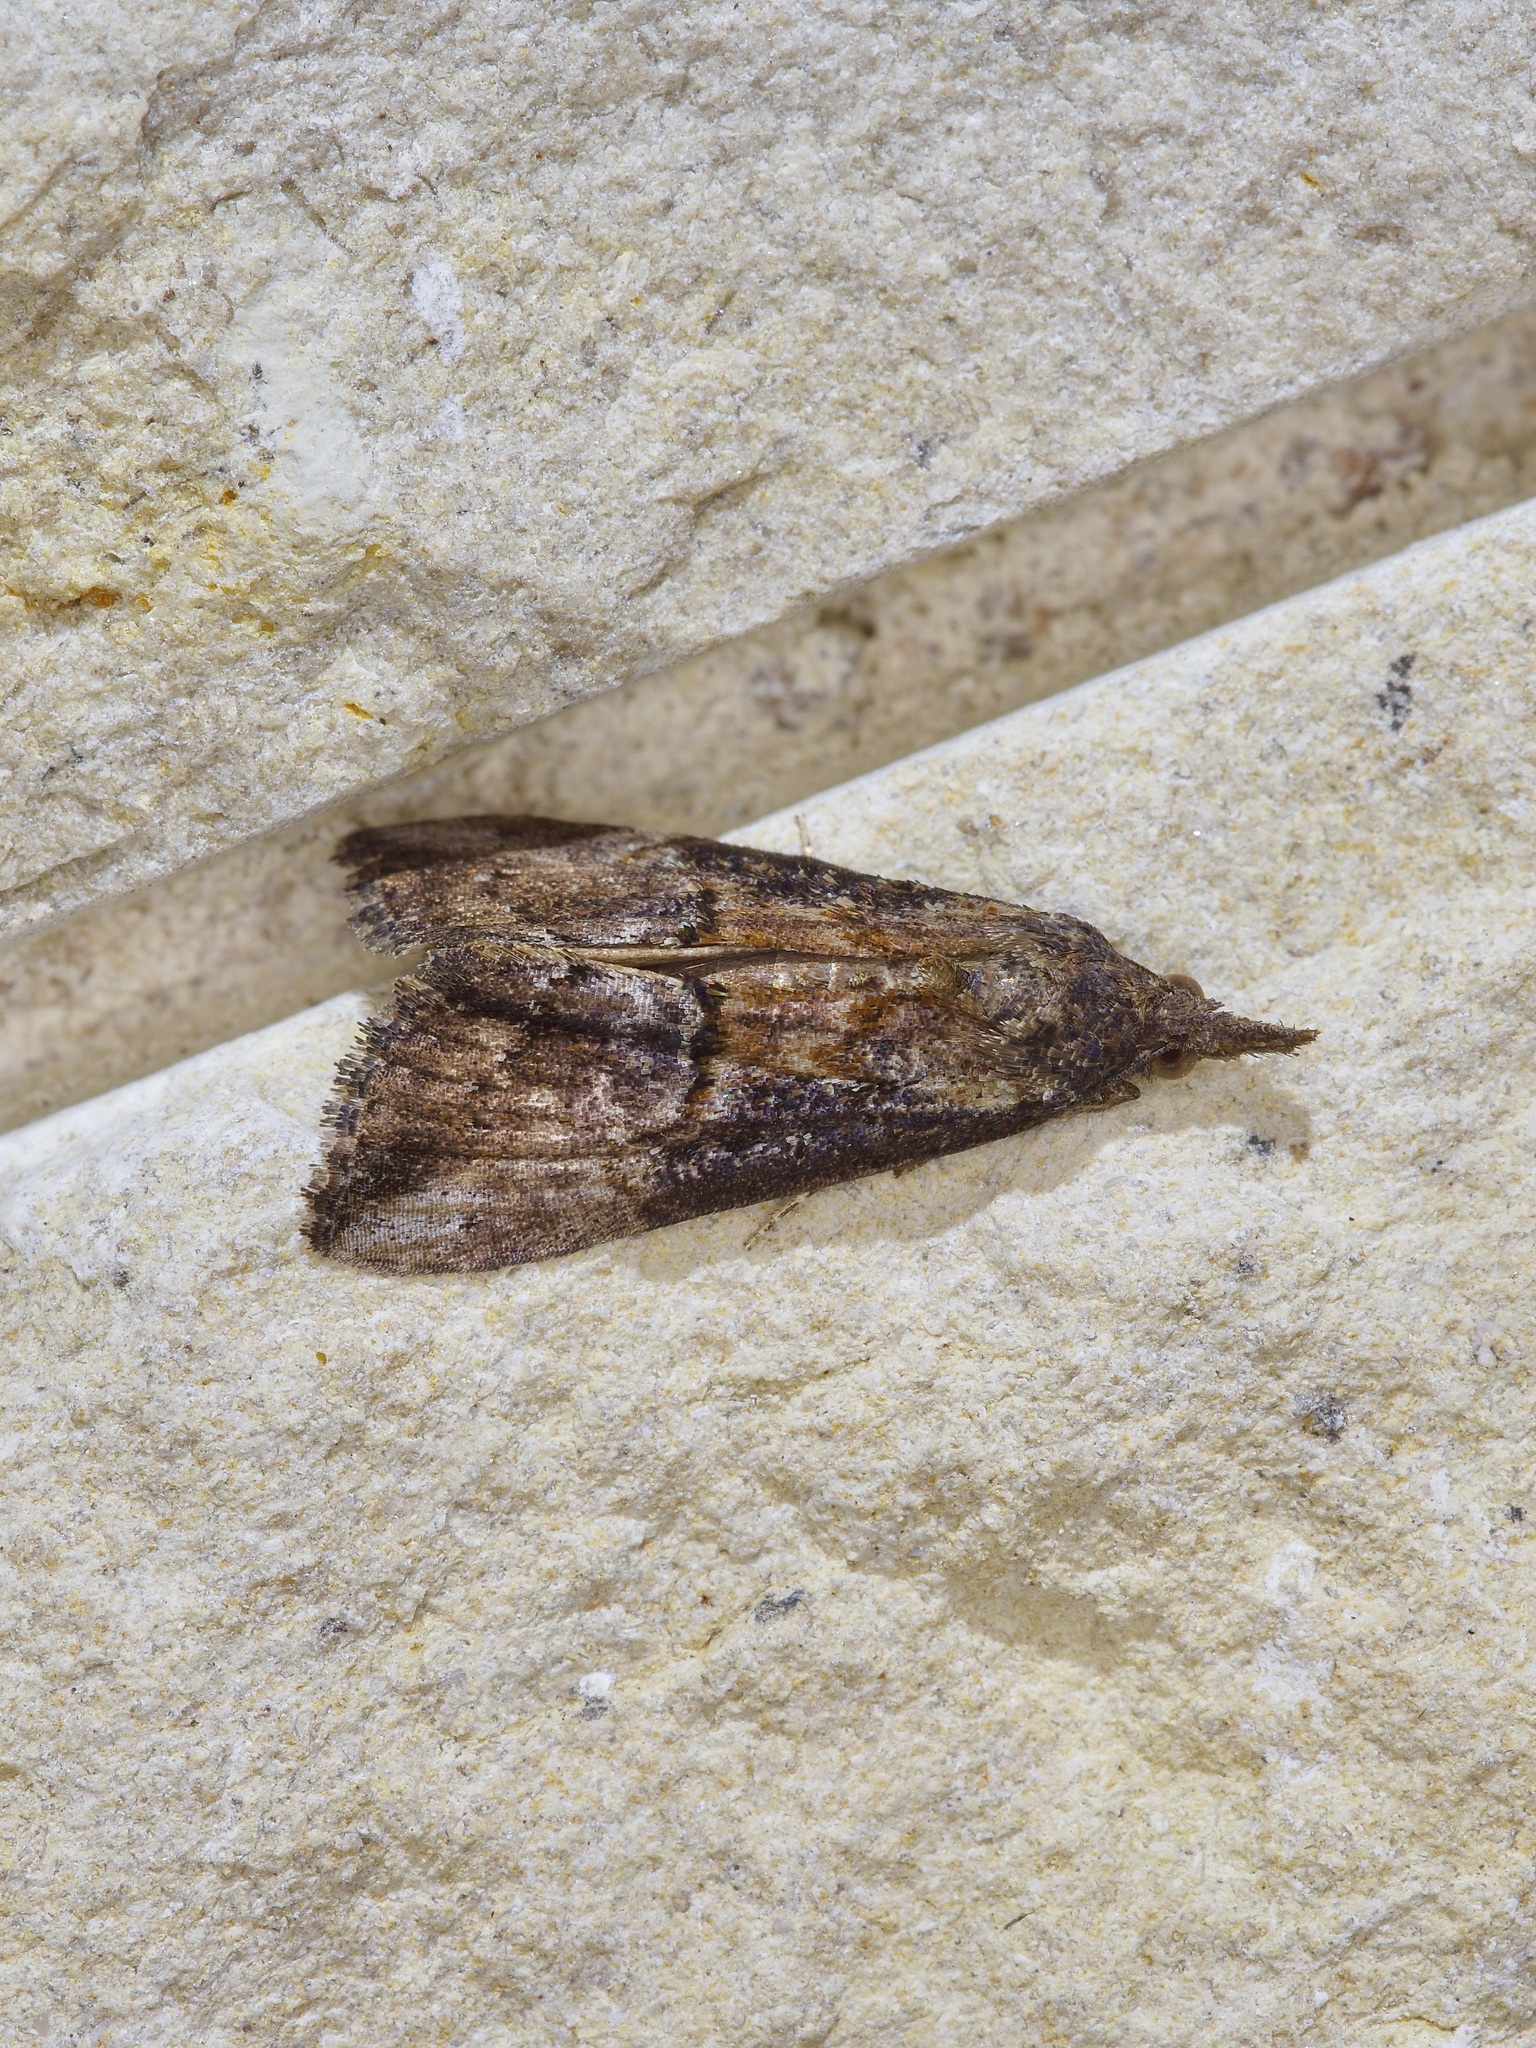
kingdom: Animalia
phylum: Arthropoda
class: Insecta
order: Lepidoptera
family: Erebidae
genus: Hypena
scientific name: Hypena scabra
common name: Green cloverworm
